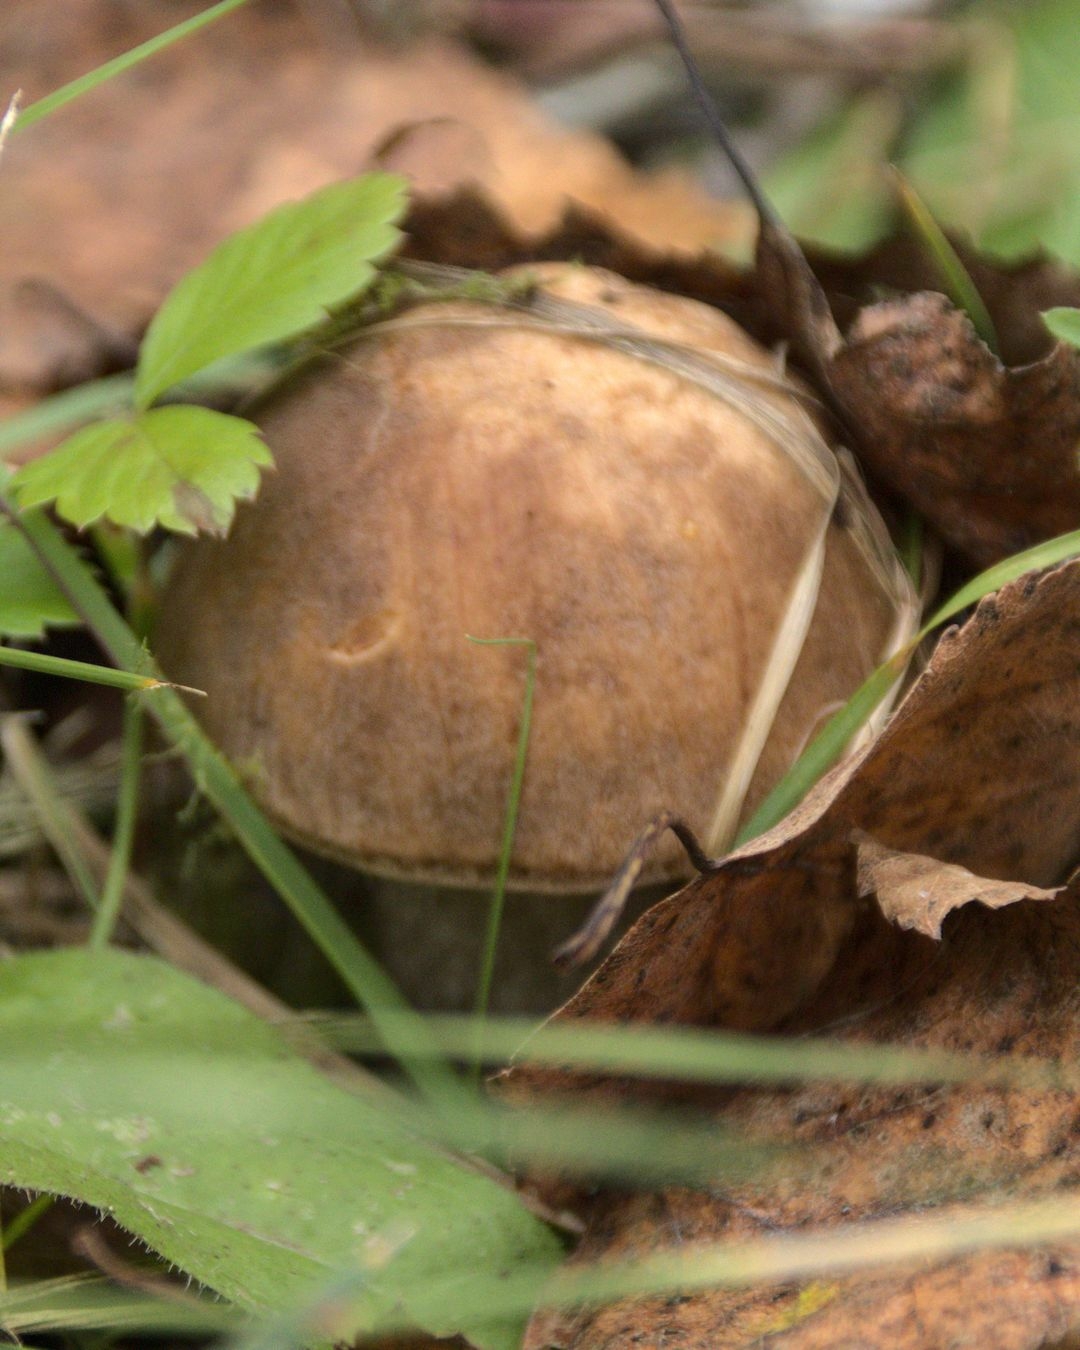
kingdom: Fungi
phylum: Basidiomycota
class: Agaricomycetes
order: Boletales
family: Boletaceae
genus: Leccinum
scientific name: Leccinum scabrum
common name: Blushing bolete
